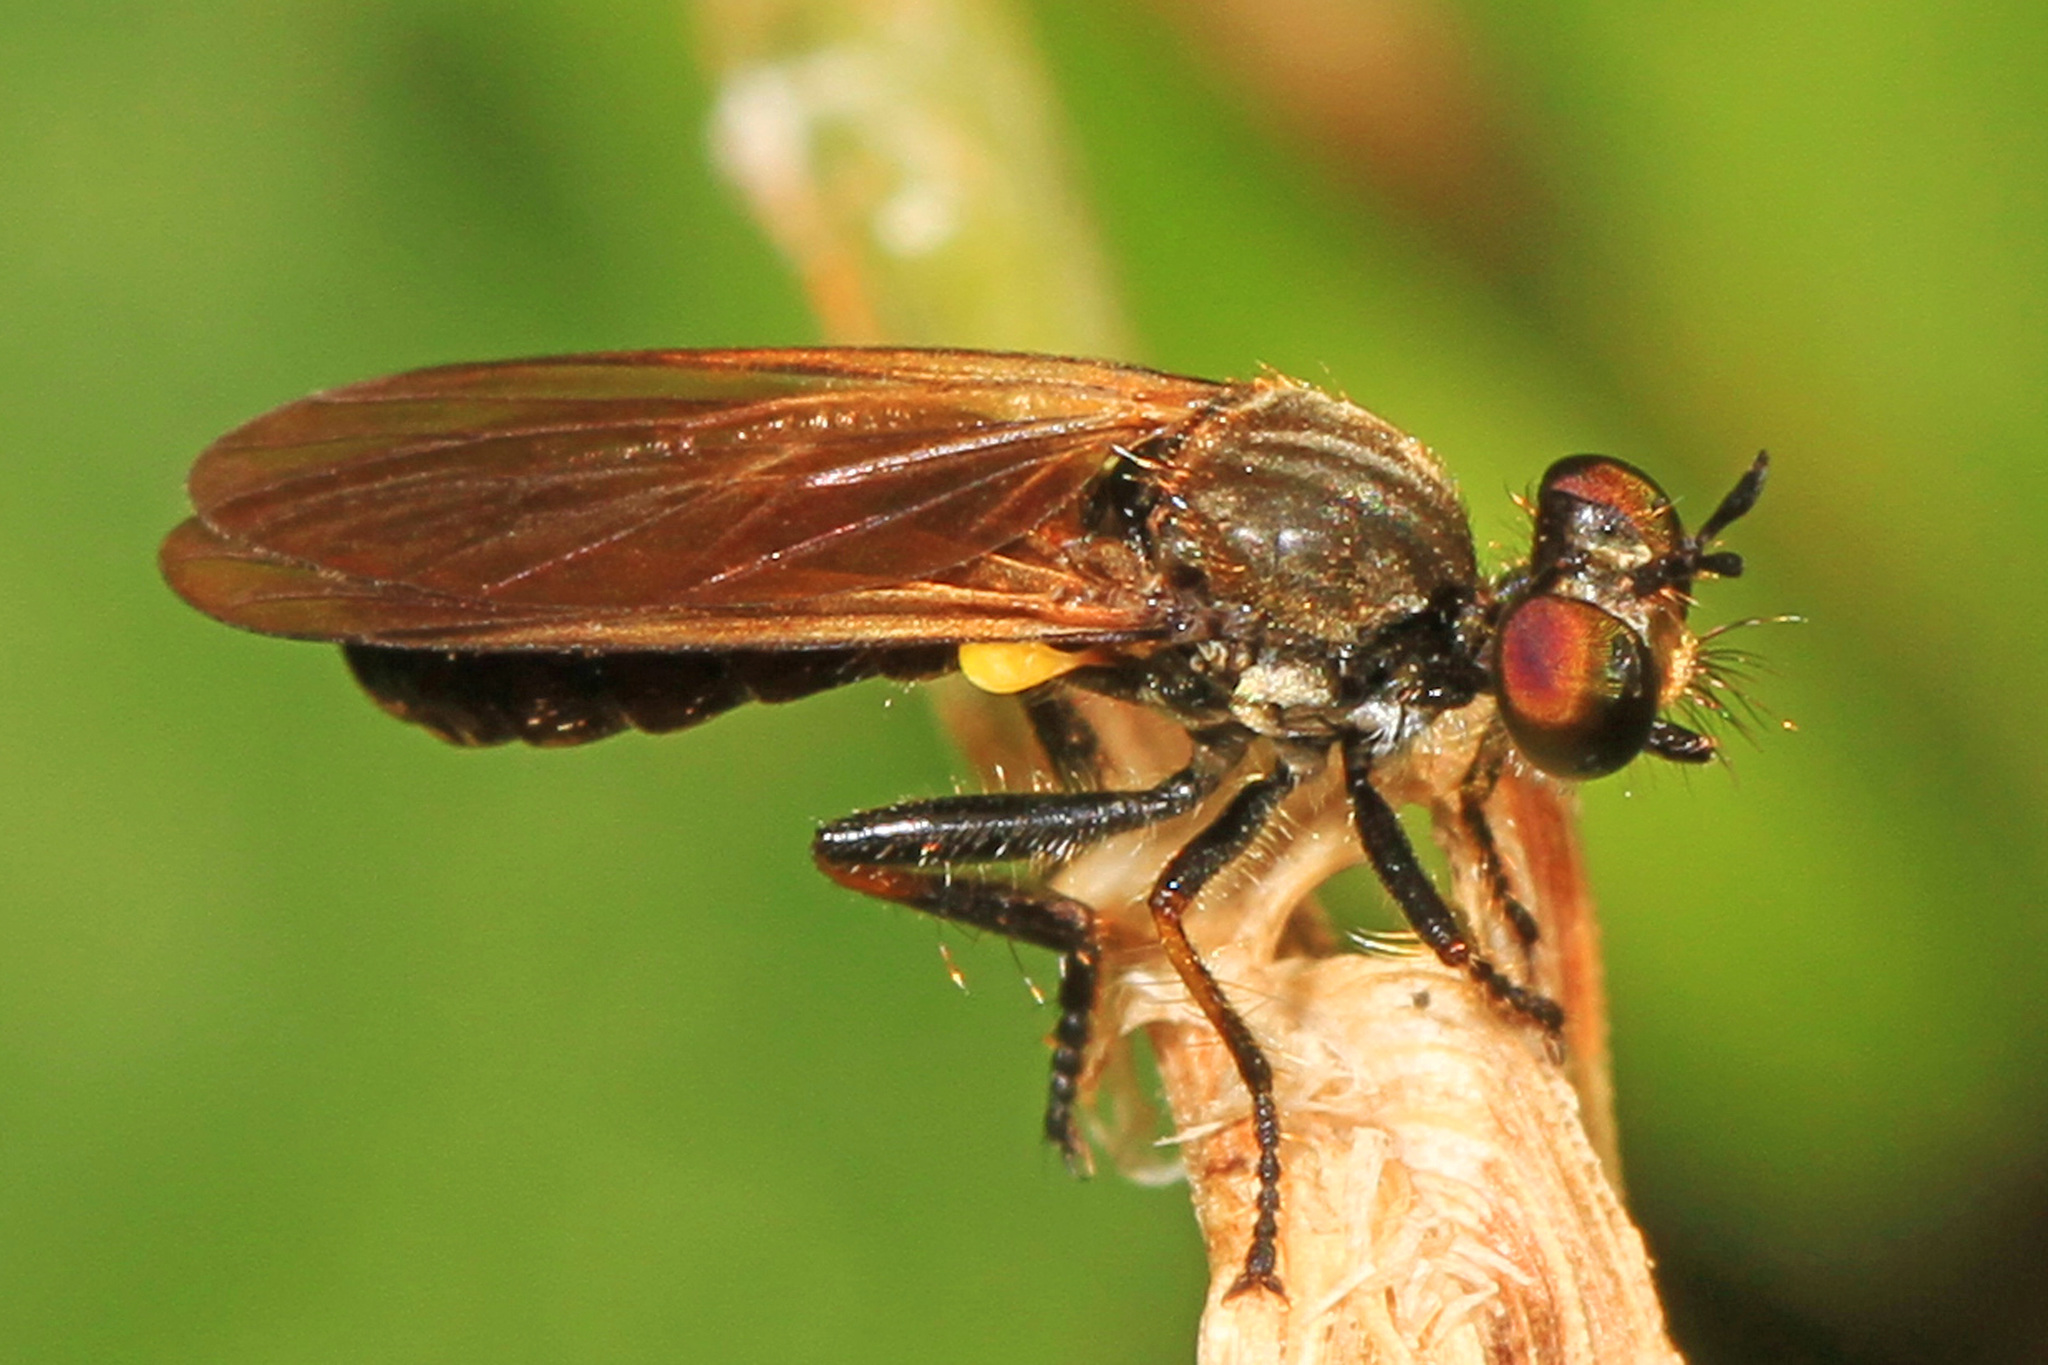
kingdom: Animalia
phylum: Arthropoda
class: Insecta
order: Diptera
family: Asilidae
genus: Eudioctria
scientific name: Eudioctria sackeni
